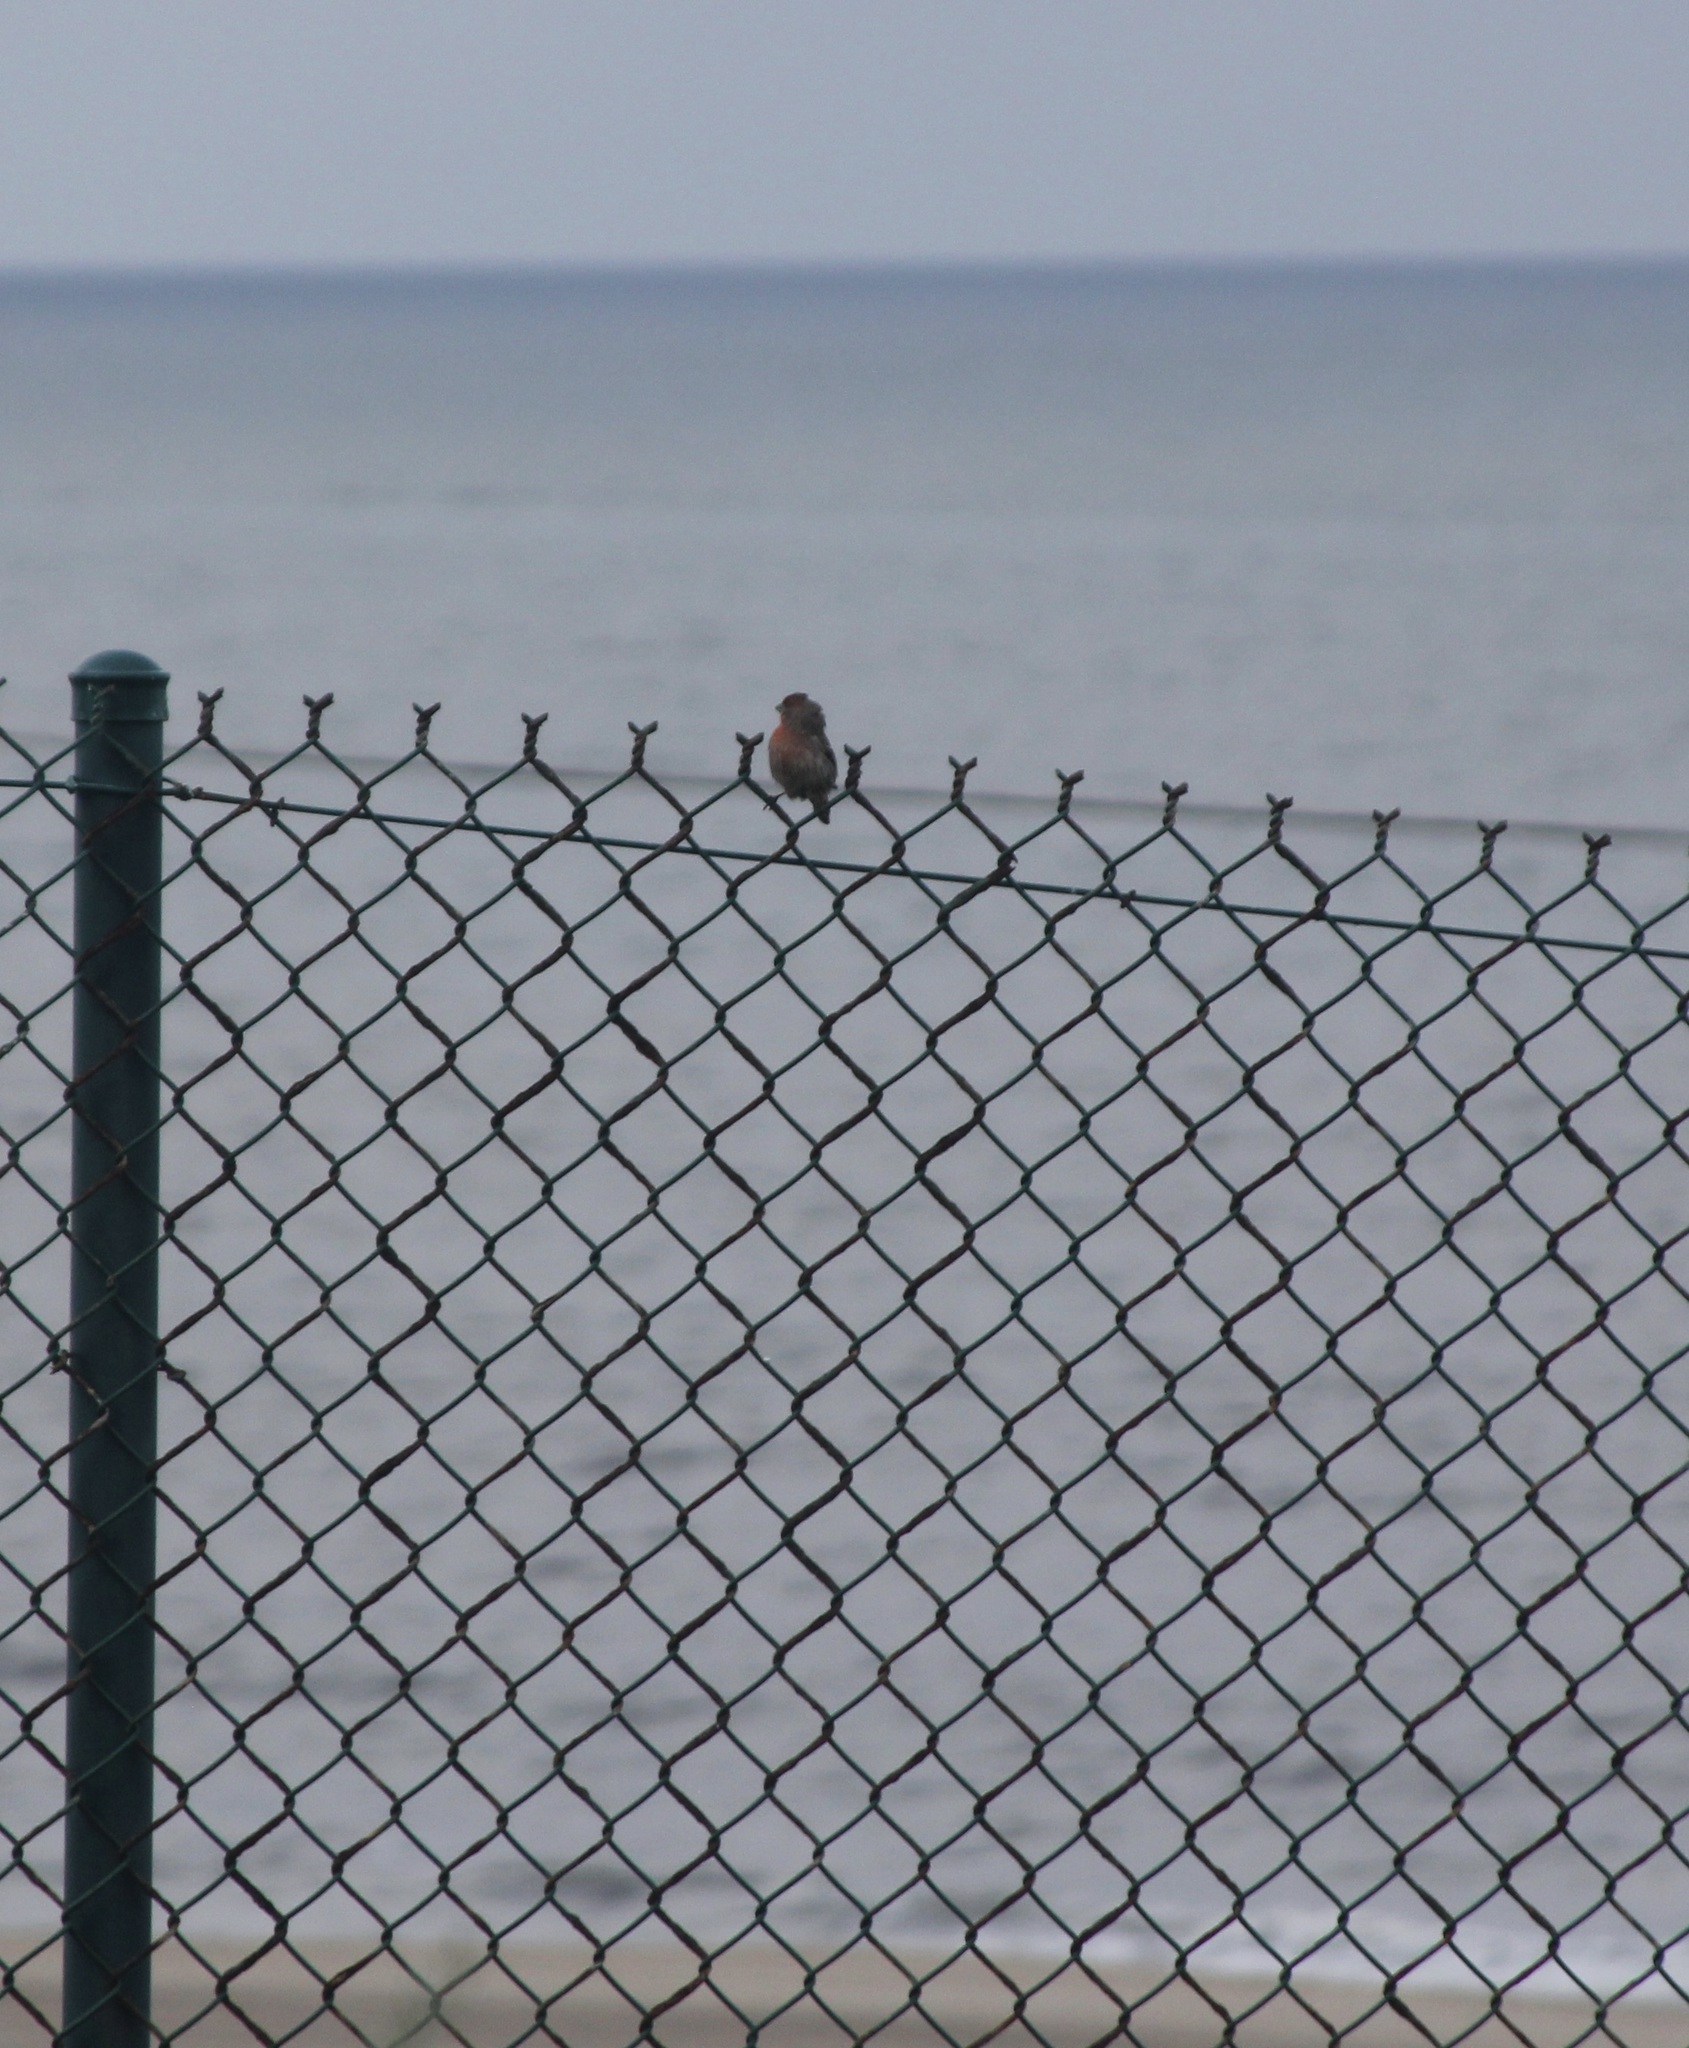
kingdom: Animalia
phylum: Chordata
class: Aves
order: Passeriformes
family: Fringillidae
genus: Haemorhous
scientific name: Haemorhous mexicanus
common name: House finch
